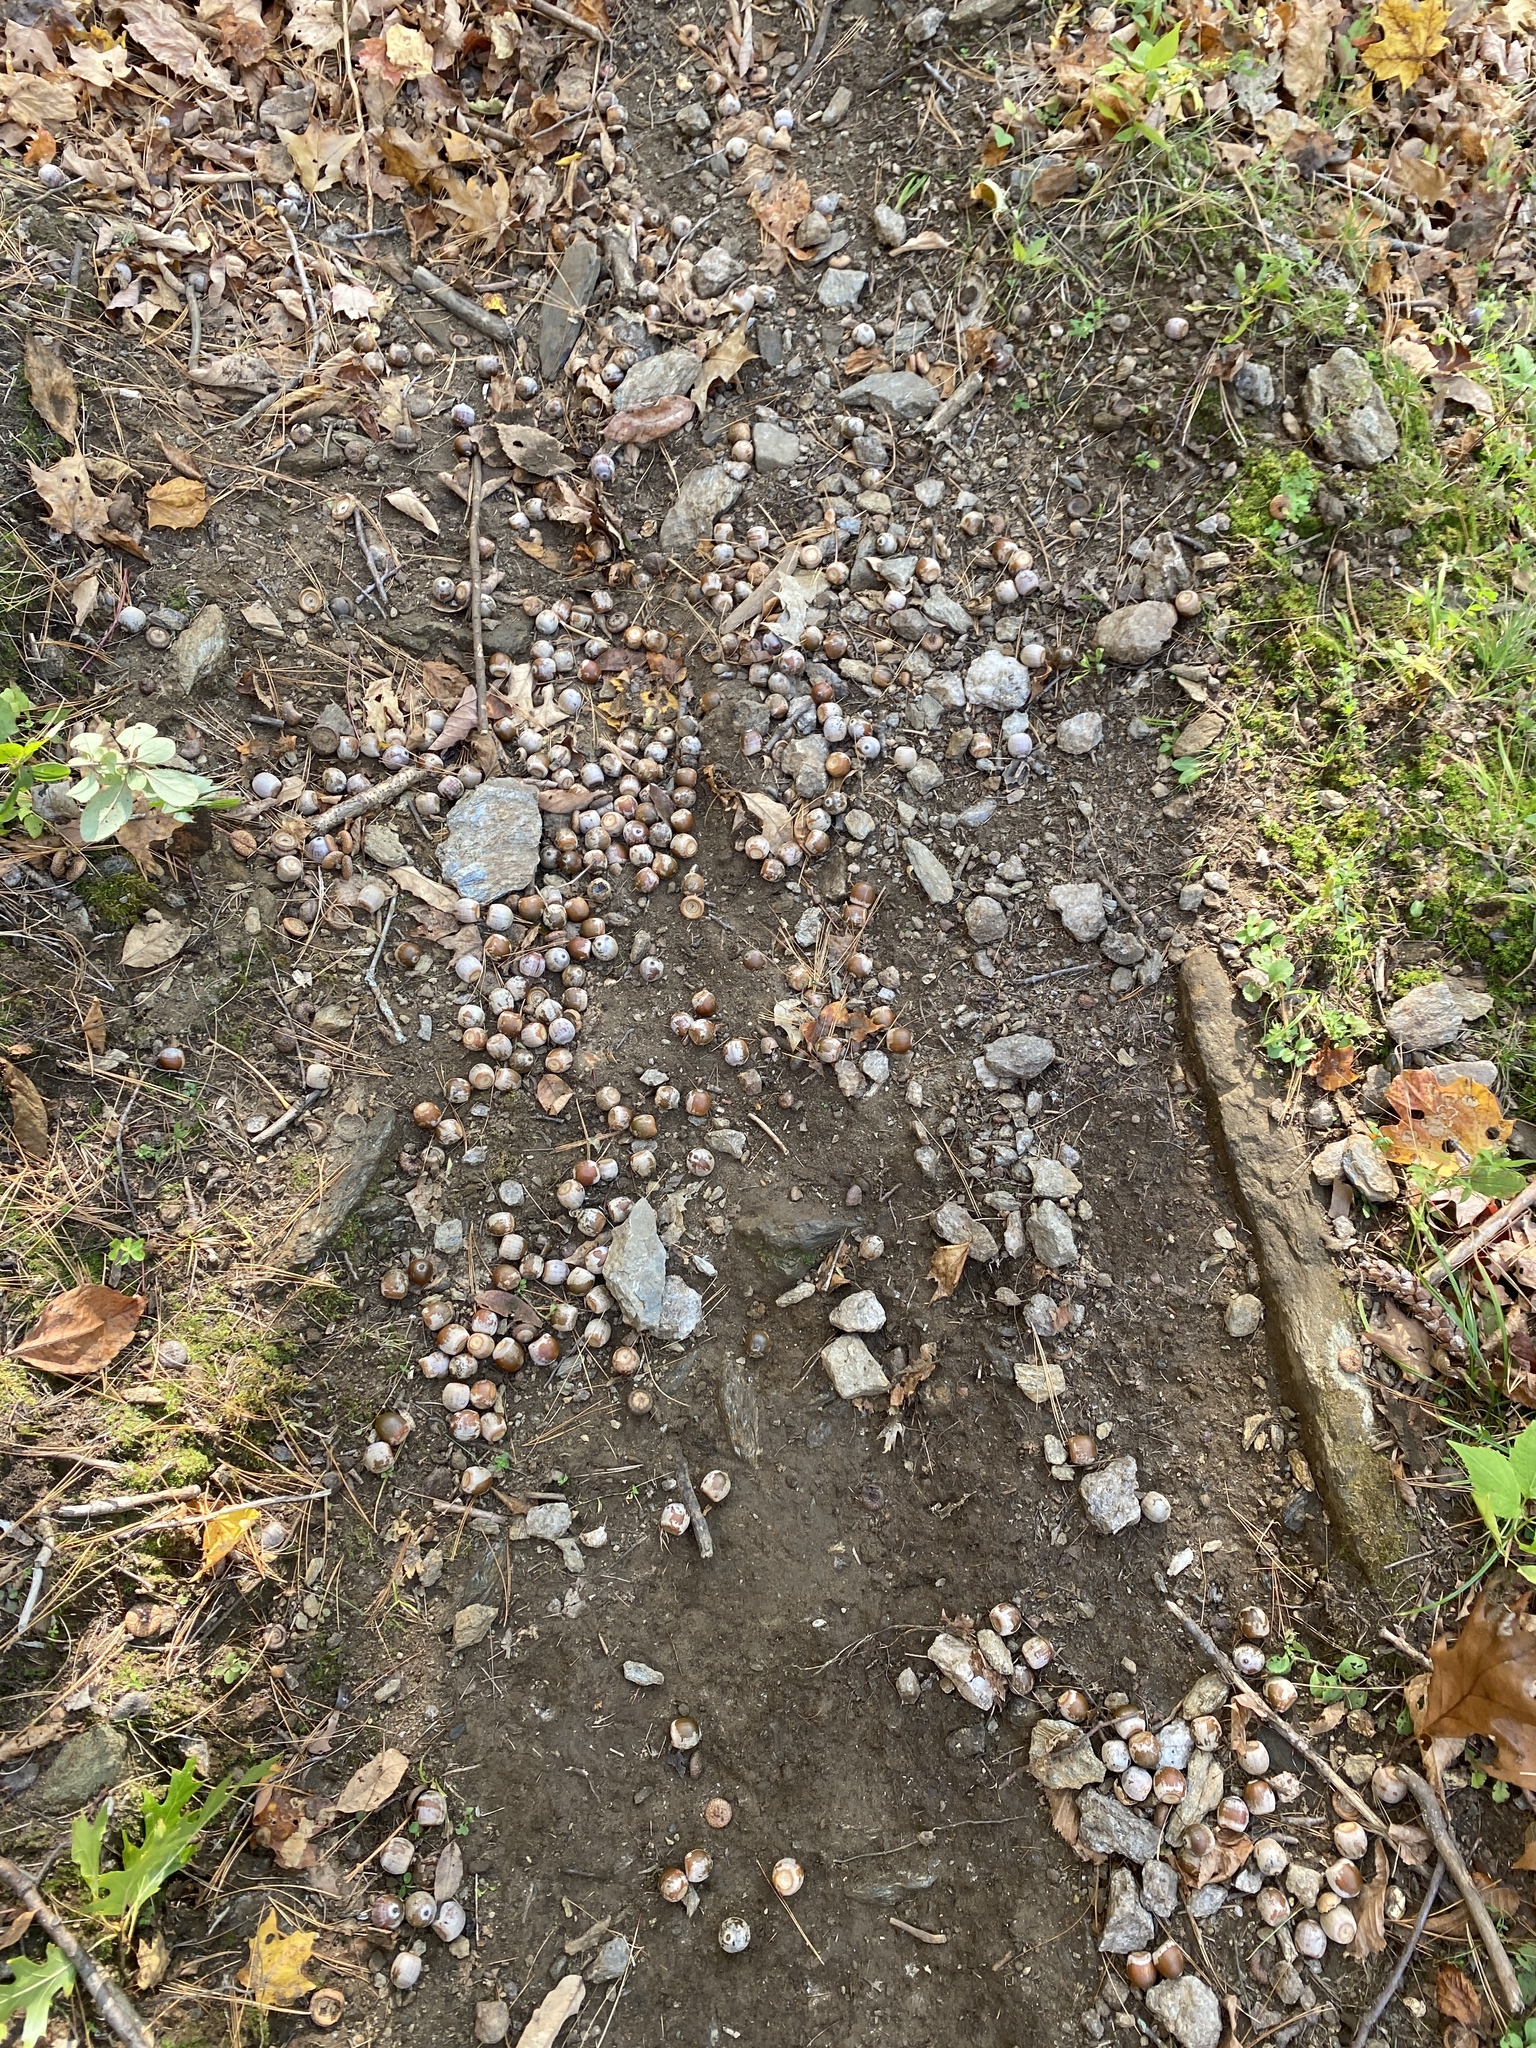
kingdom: Plantae
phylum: Tracheophyta
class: Magnoliopsida
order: Fagales
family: Fagaceae
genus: Quercus
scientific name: Quercus rubra
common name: Red oak
